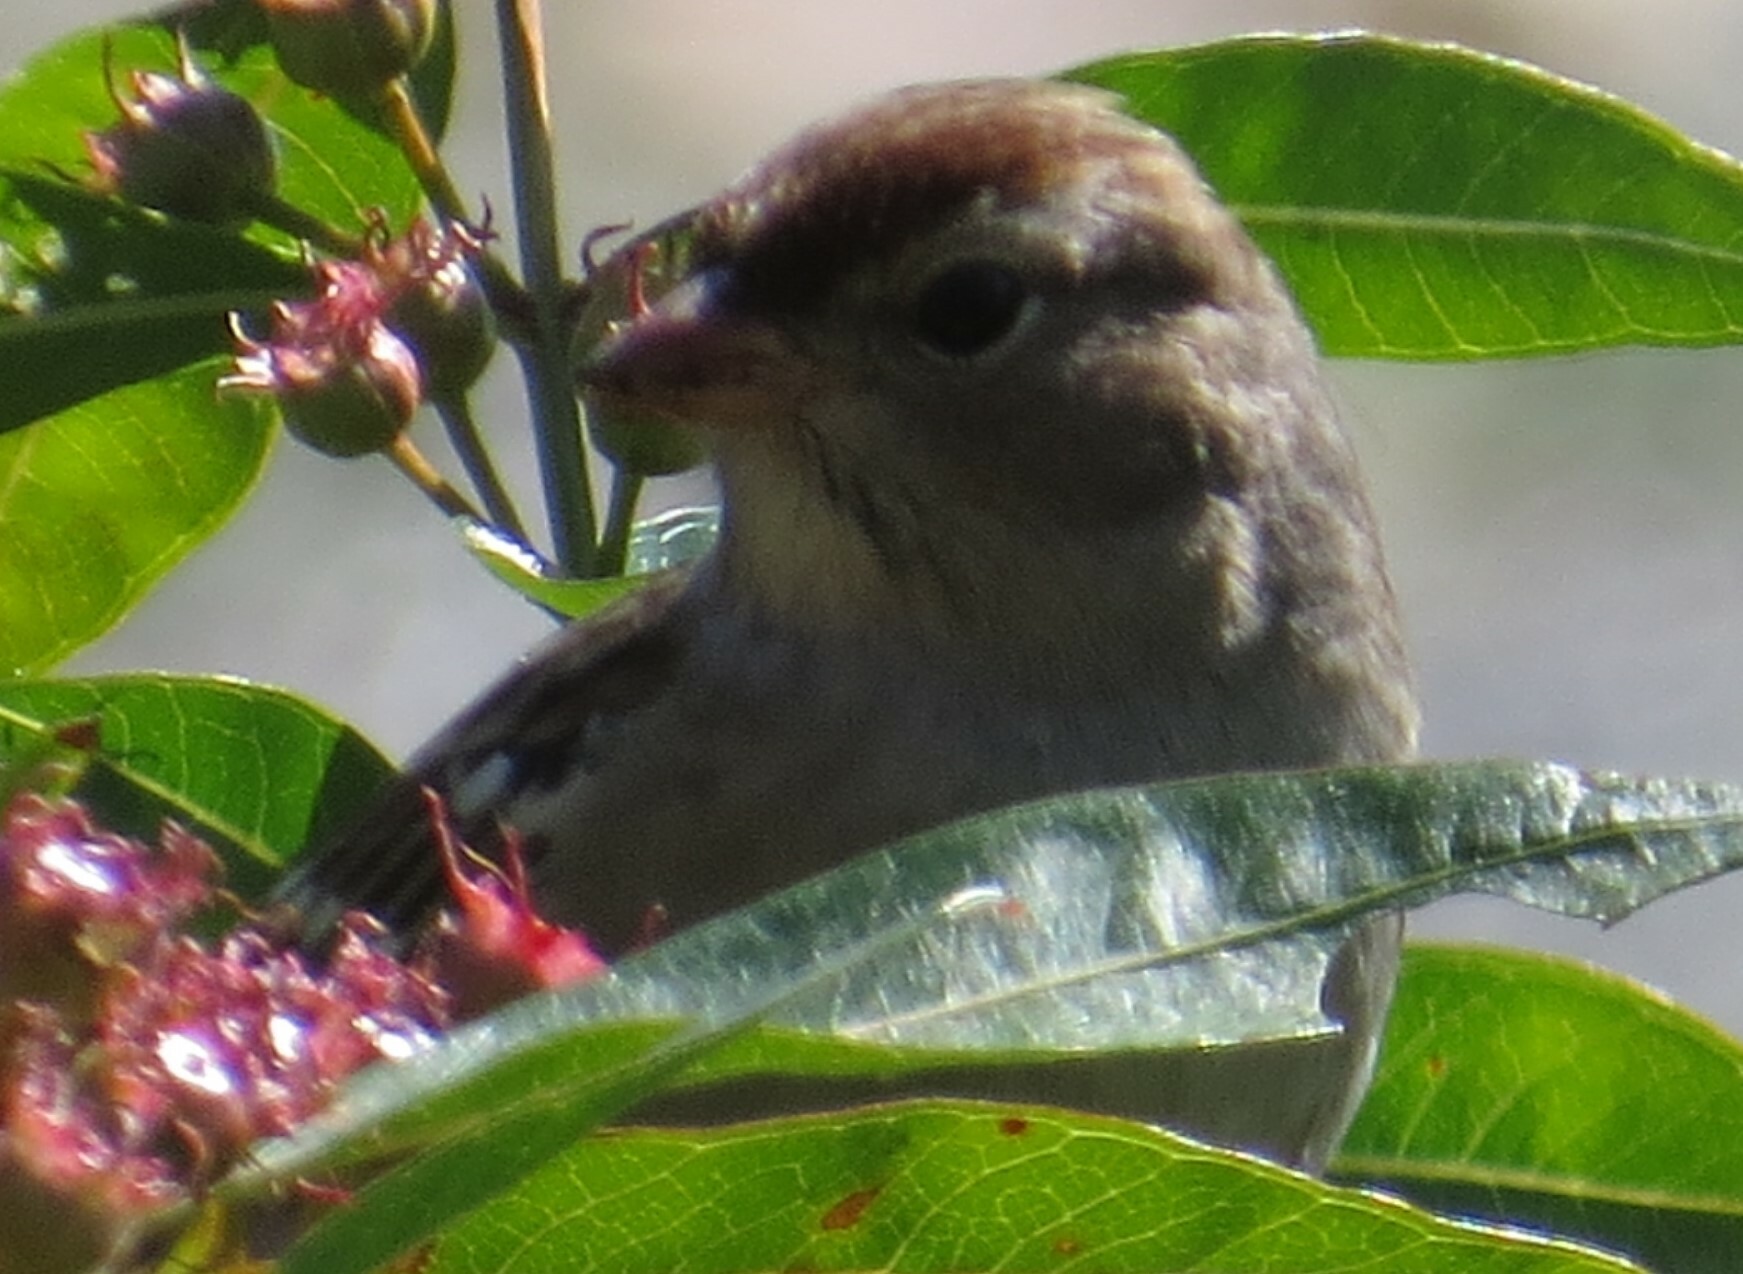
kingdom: Animalia
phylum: Chordata
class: Aves
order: Passeriformes
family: Passerellidae
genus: Zonotrichia
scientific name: Zonotrichia leucophrys
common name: White-crowned sparrow
